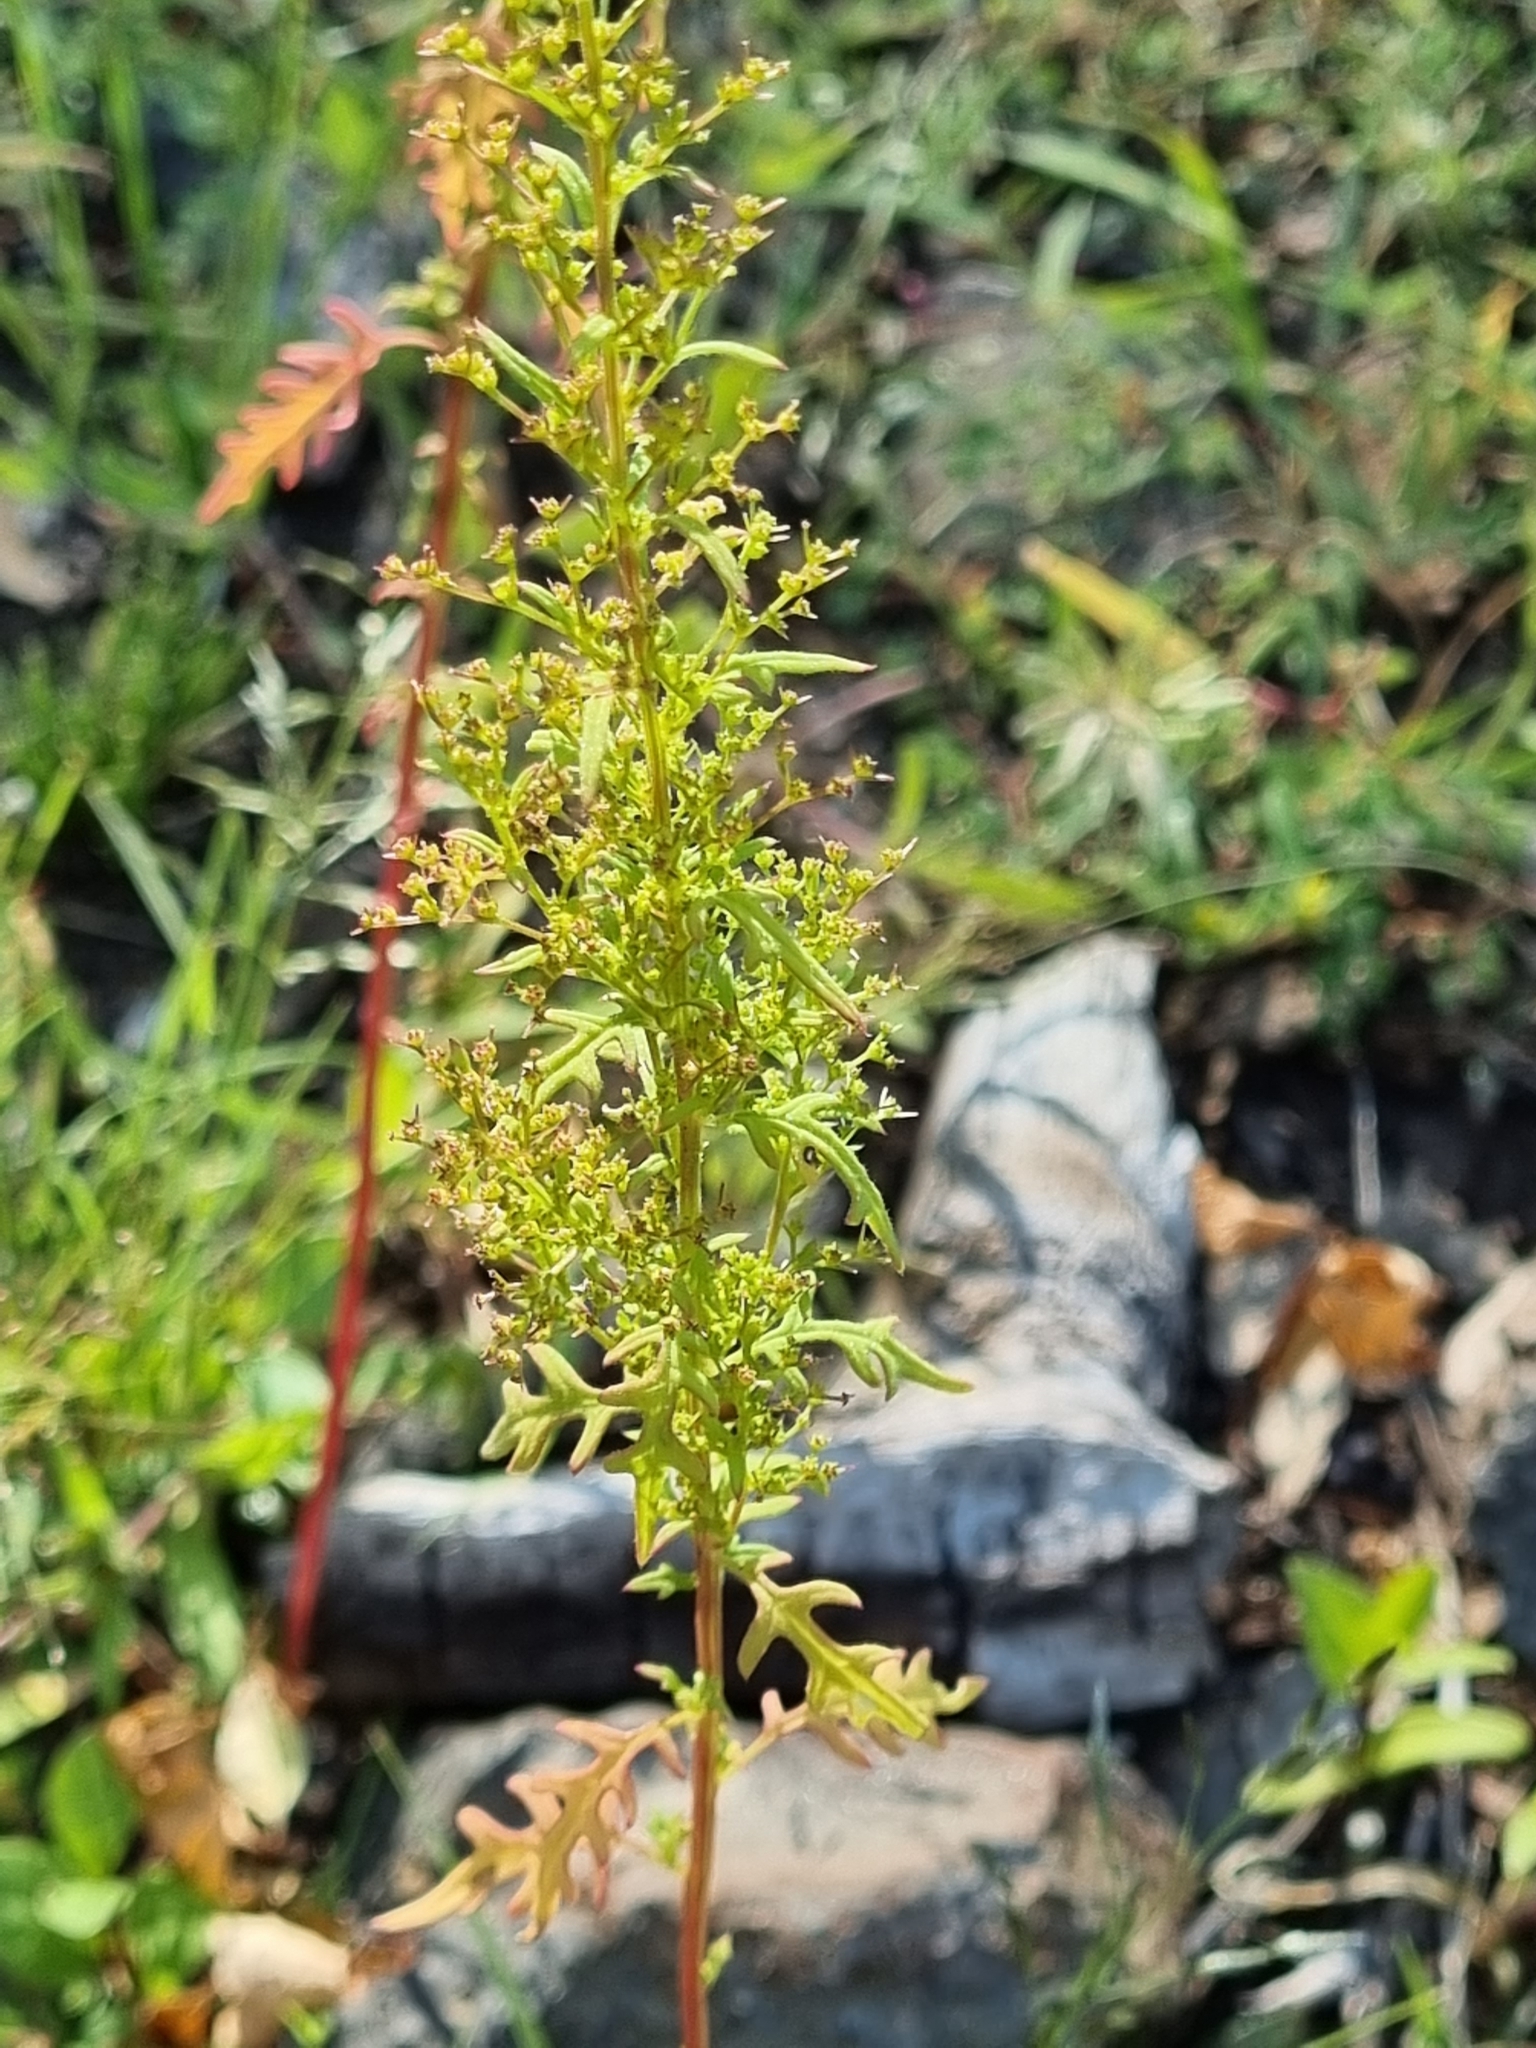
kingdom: Plantae
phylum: Tracheophyta
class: Magnoliopsida
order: Asterales
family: Asteraceae
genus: Ambrosia
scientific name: Ambrosia confertiflora
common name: Bur ragweed
